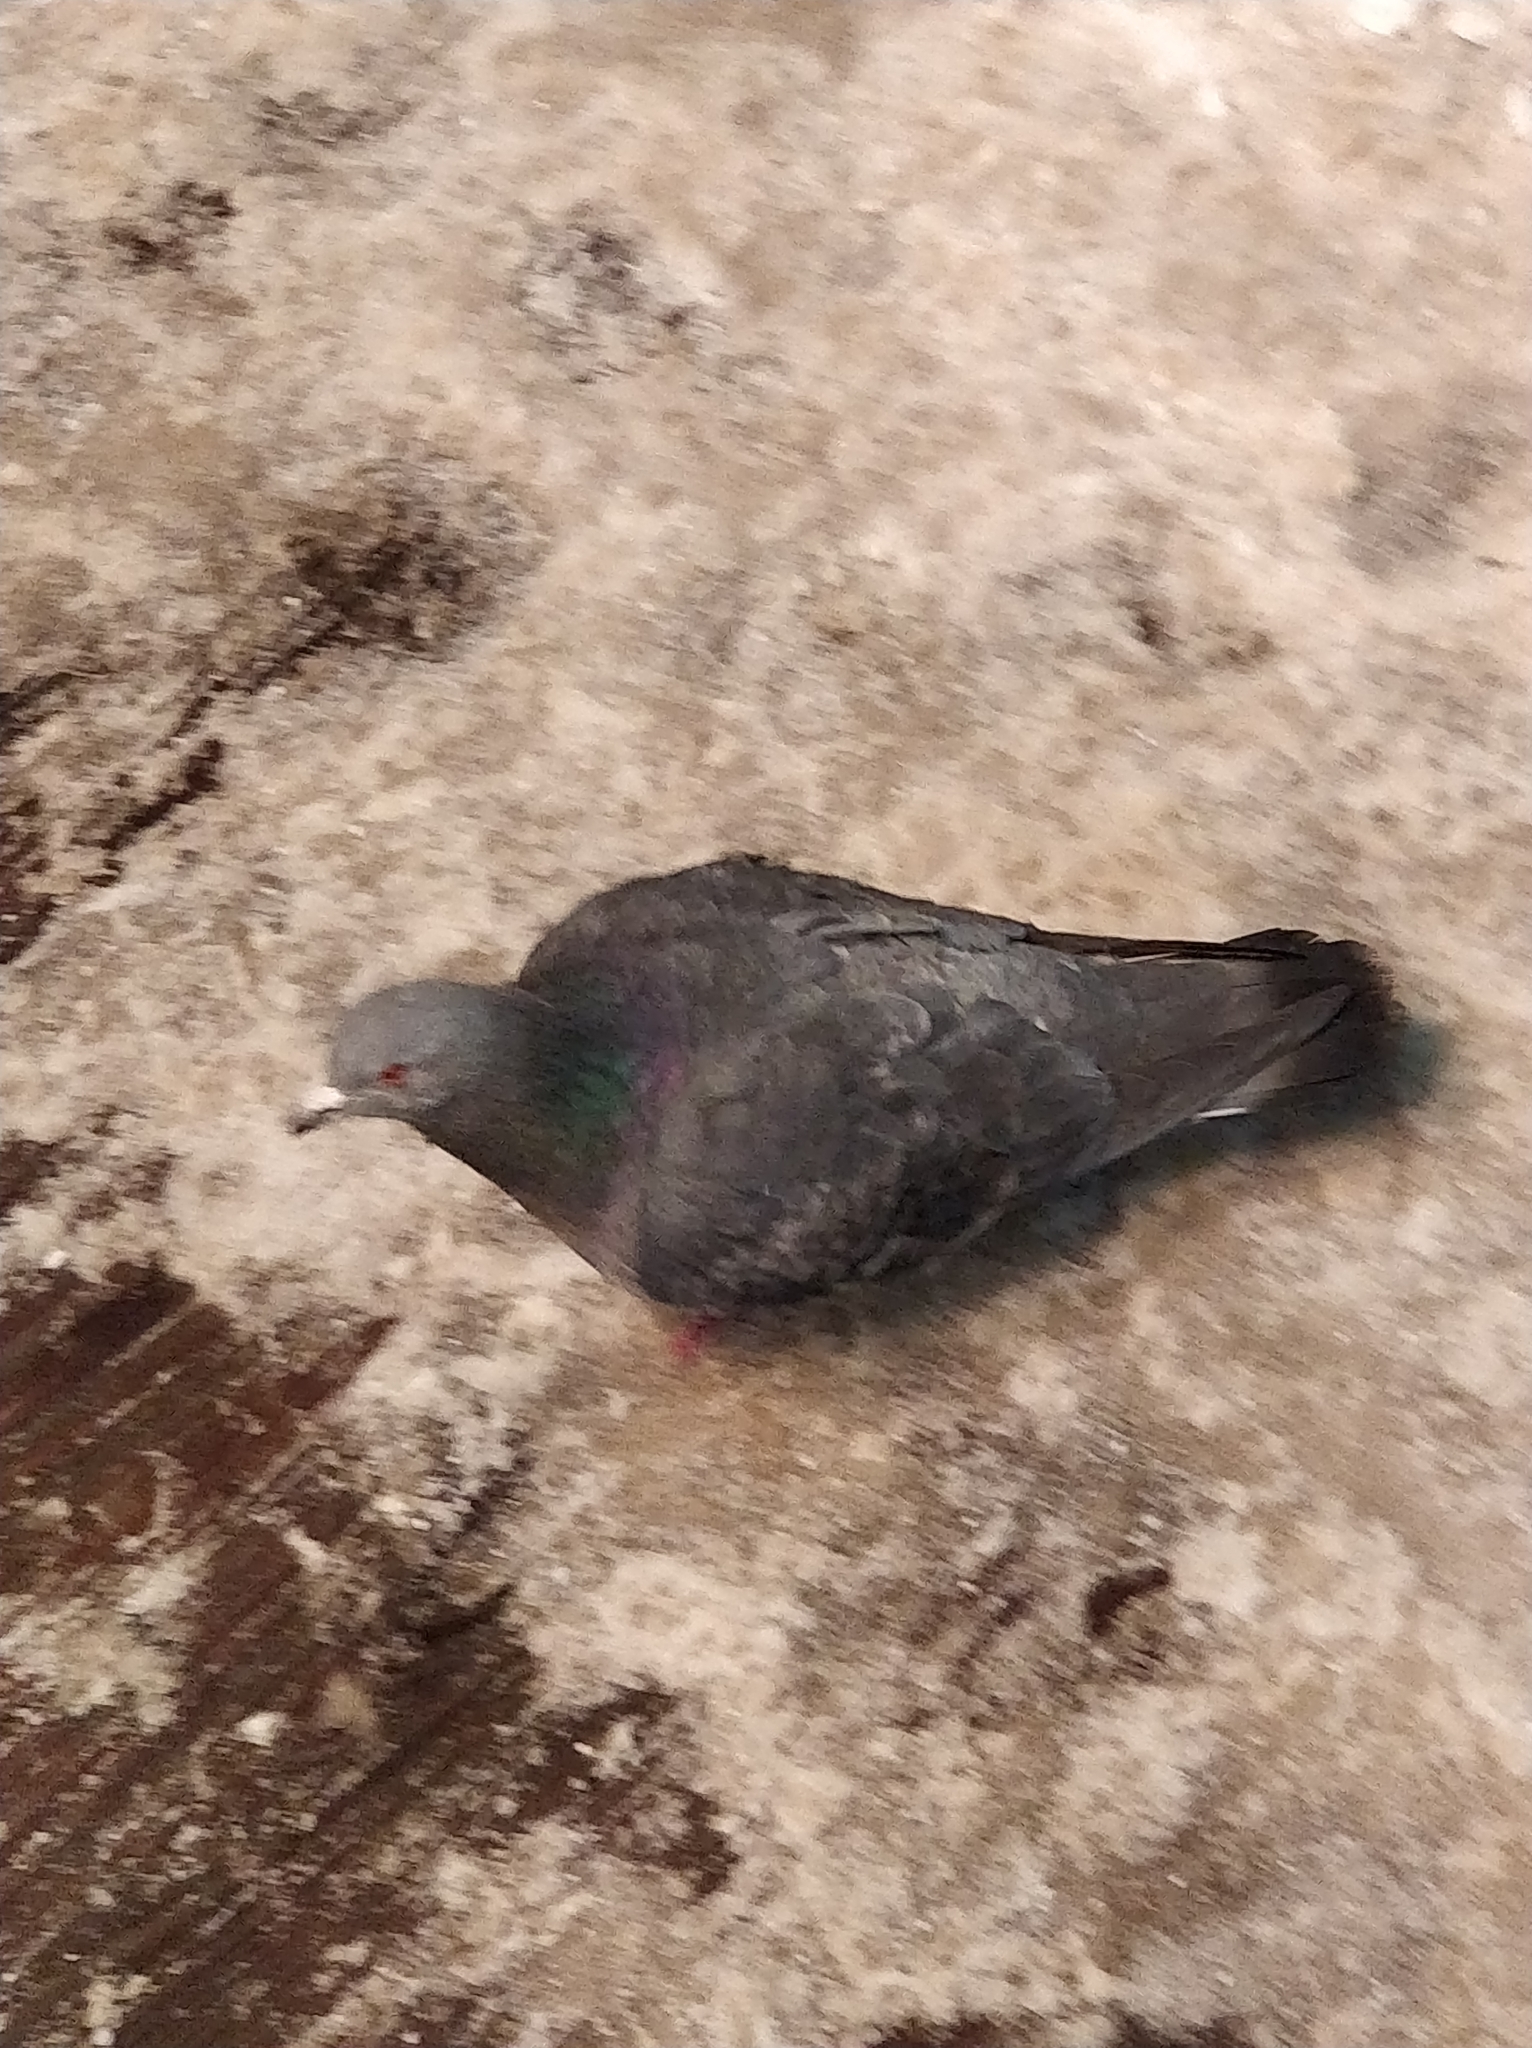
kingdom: Animalia
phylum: Chordata
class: Aves
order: Columbiformes
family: Columbidae
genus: Columba
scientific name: Columba livia
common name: Rock pigeon
